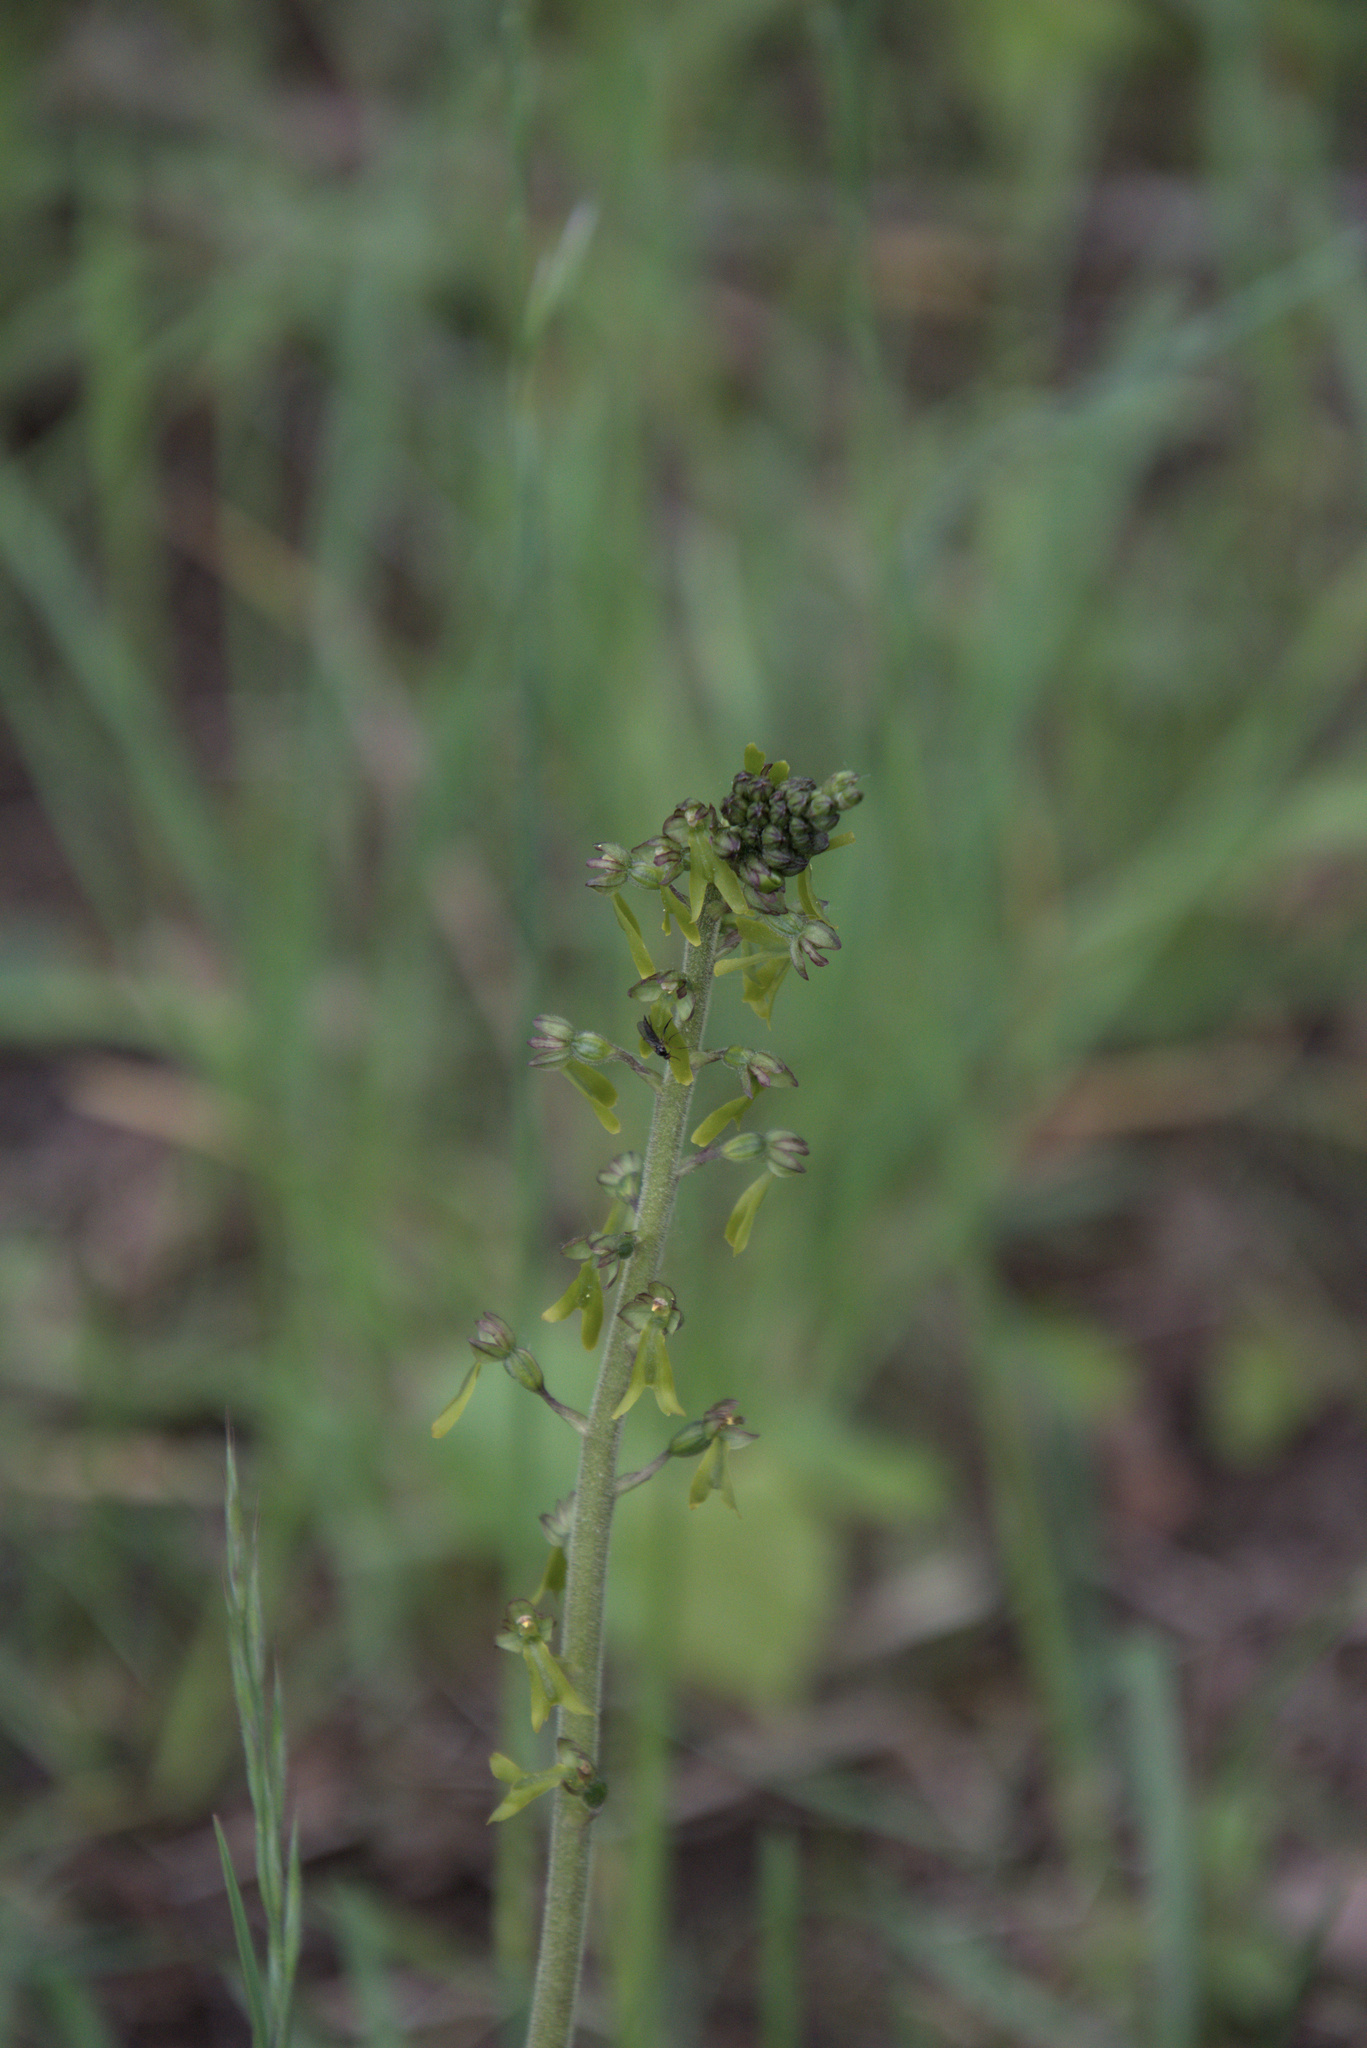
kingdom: Plantae
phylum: Tracheophyta
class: Liliopsida
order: Asparagales
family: Orchidaceae
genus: Neottia
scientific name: Neottia ovata
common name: Common twayblade
